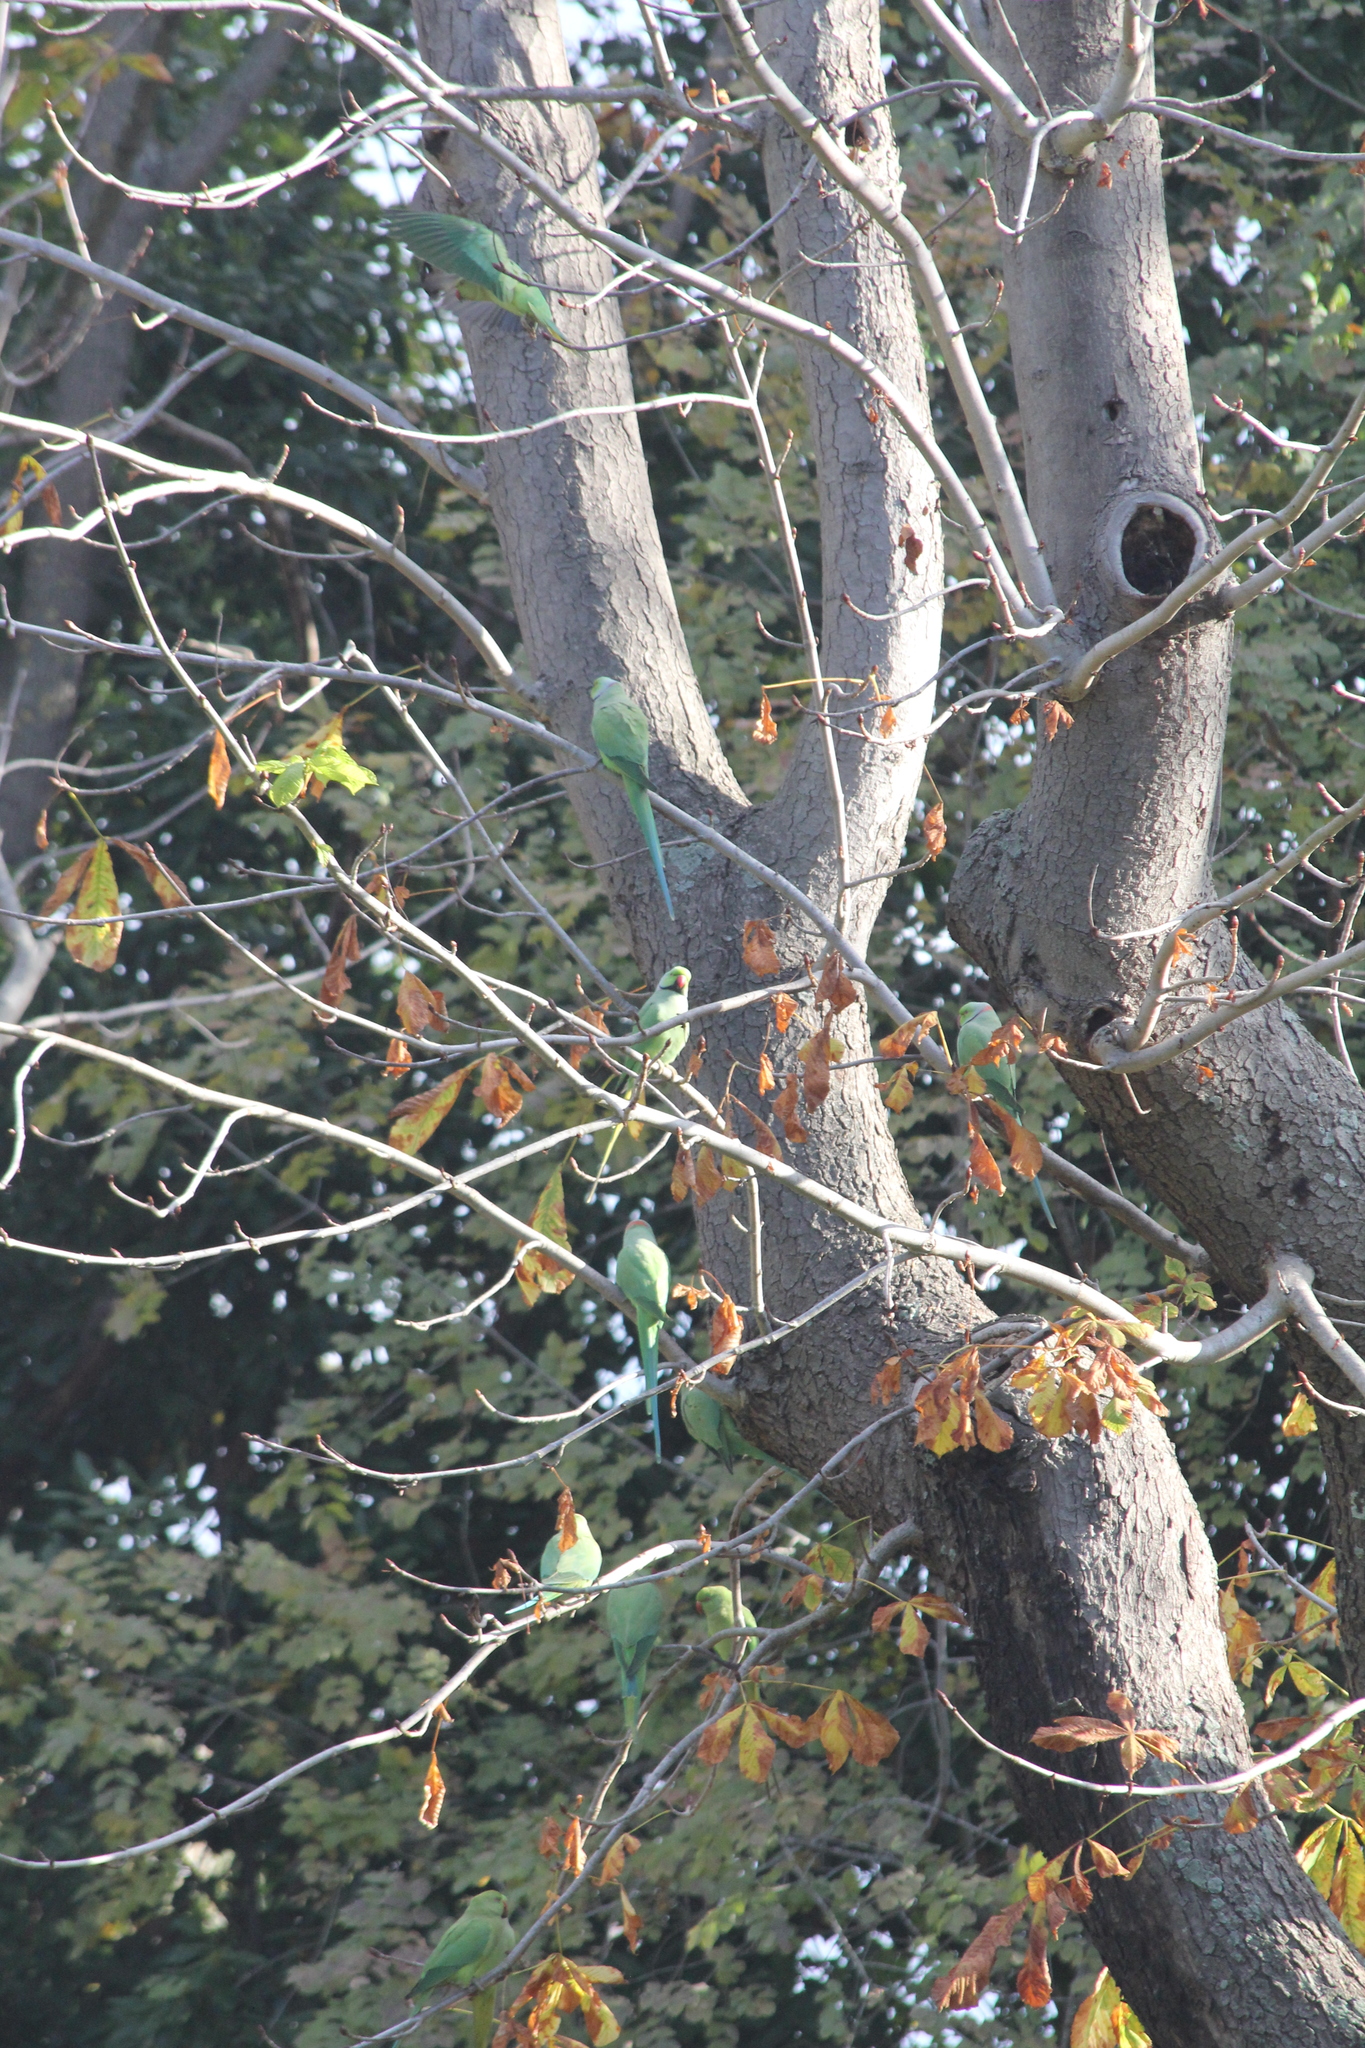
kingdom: Animalia
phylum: Chordata
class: Aves
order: Psittaciformes
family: Psittacidae
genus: Psittacula
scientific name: Psittacula krameri
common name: Rose-ringed parakeet
